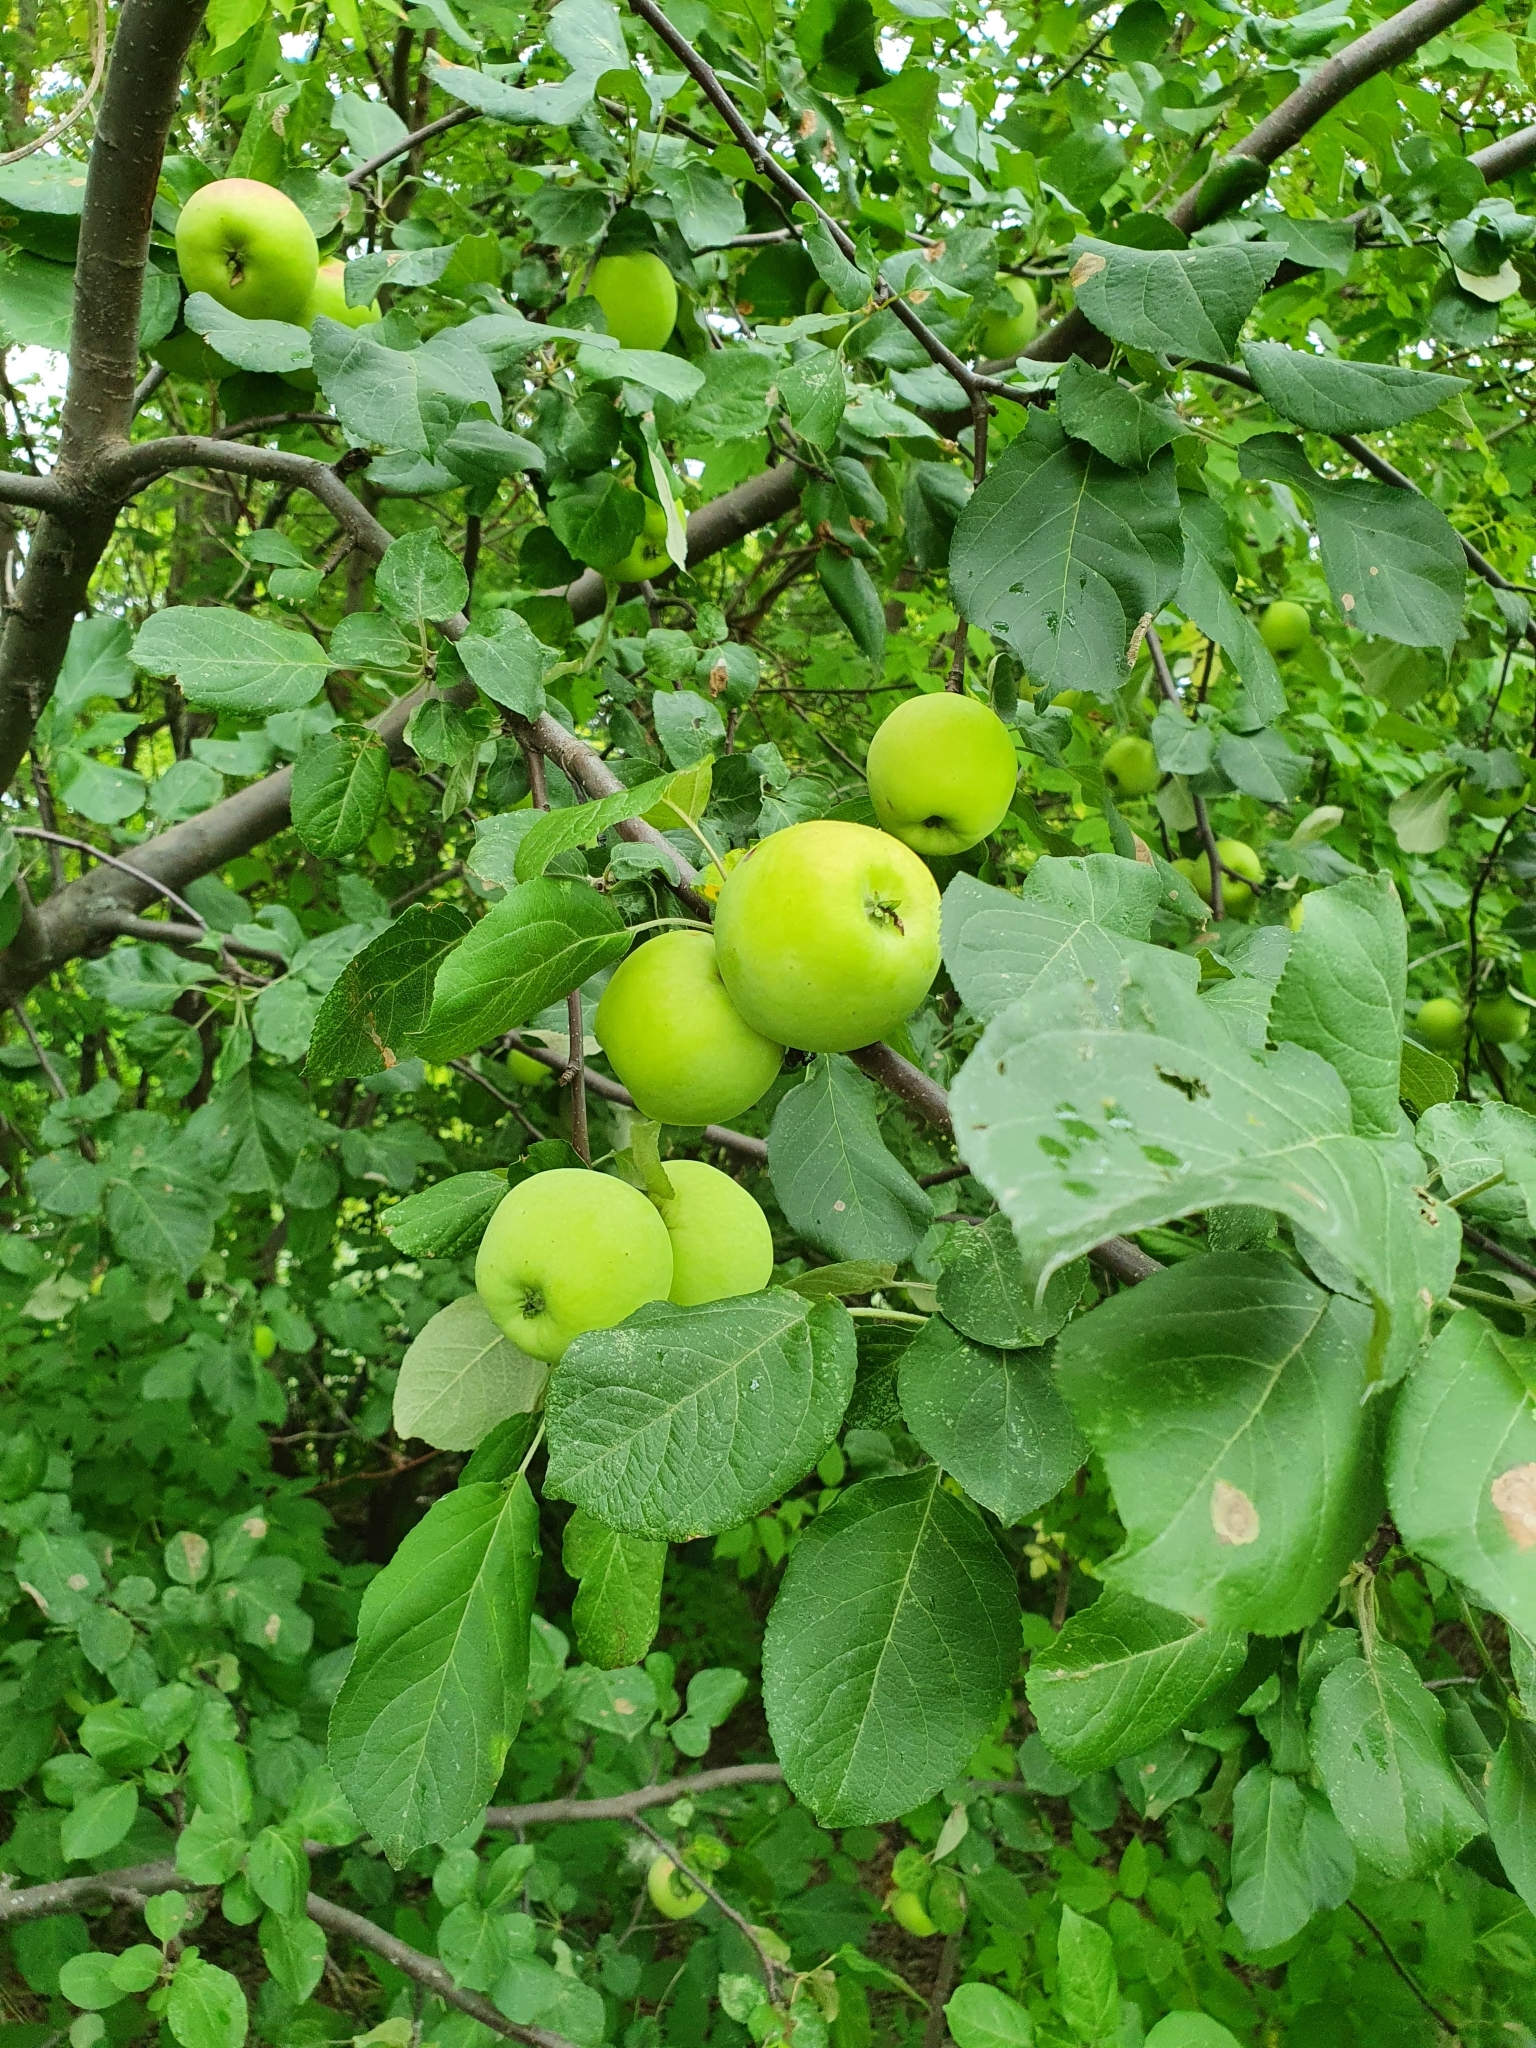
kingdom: Plantae
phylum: Tracheophyta
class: Magnoliopsida
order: Rosales
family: Rosaceae
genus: Malus
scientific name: Malus domestica
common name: Apple
